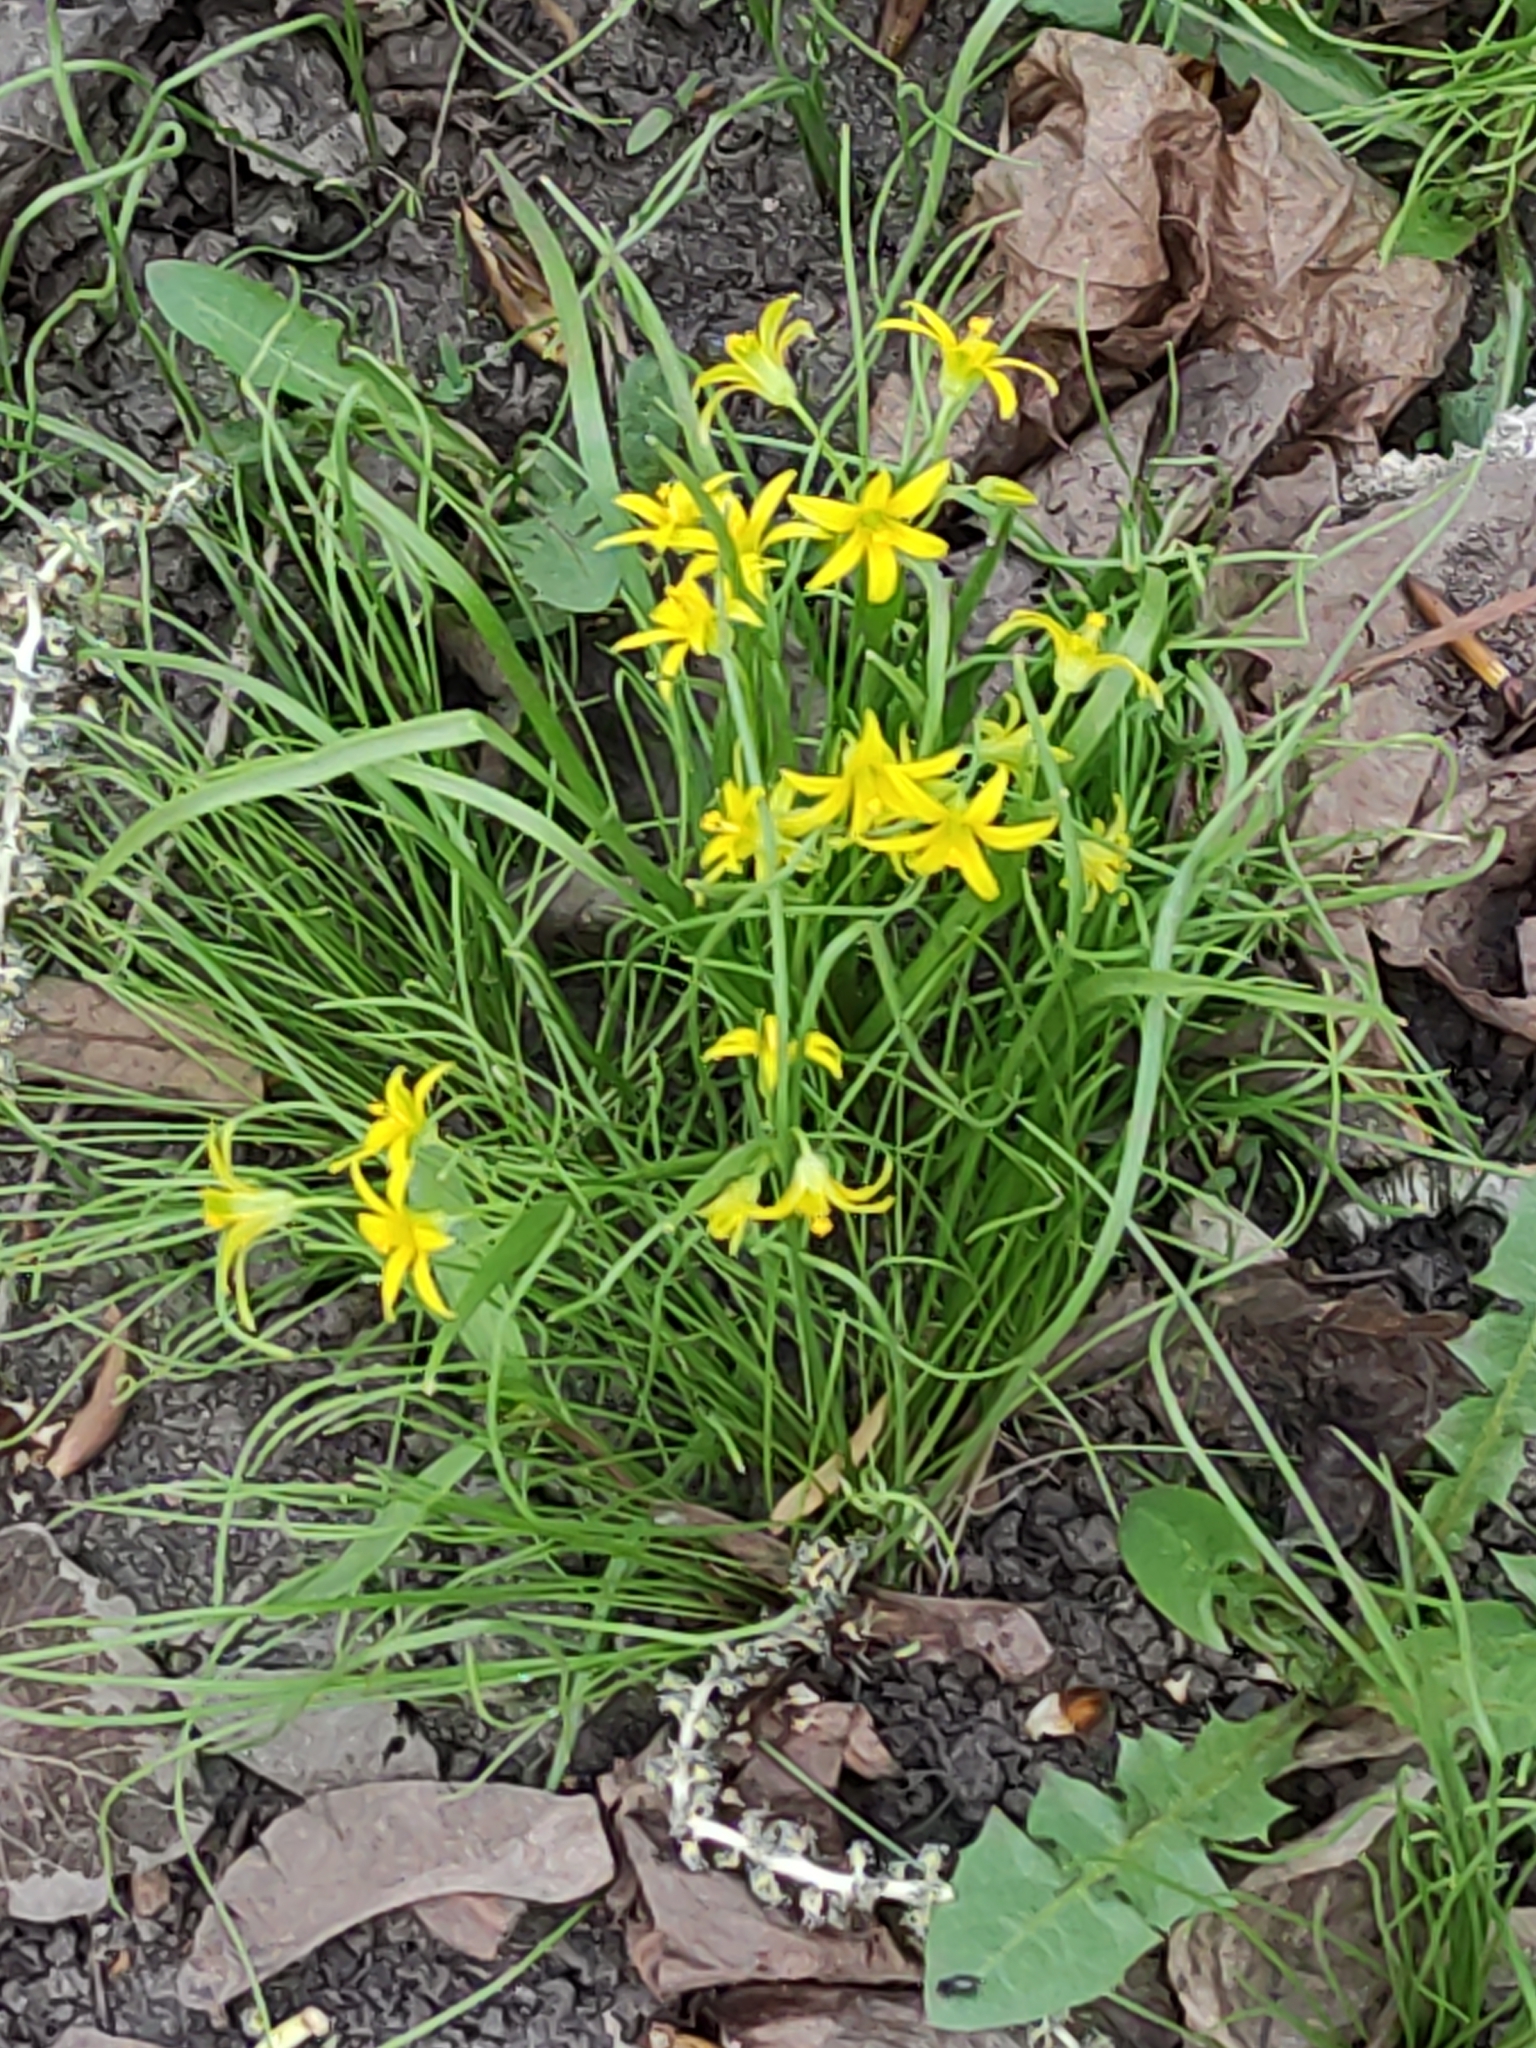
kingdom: Plantae
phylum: Tracheophyta
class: Liliopsida
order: Liliales
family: Liliaceae
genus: Gagea
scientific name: Gagea minima
